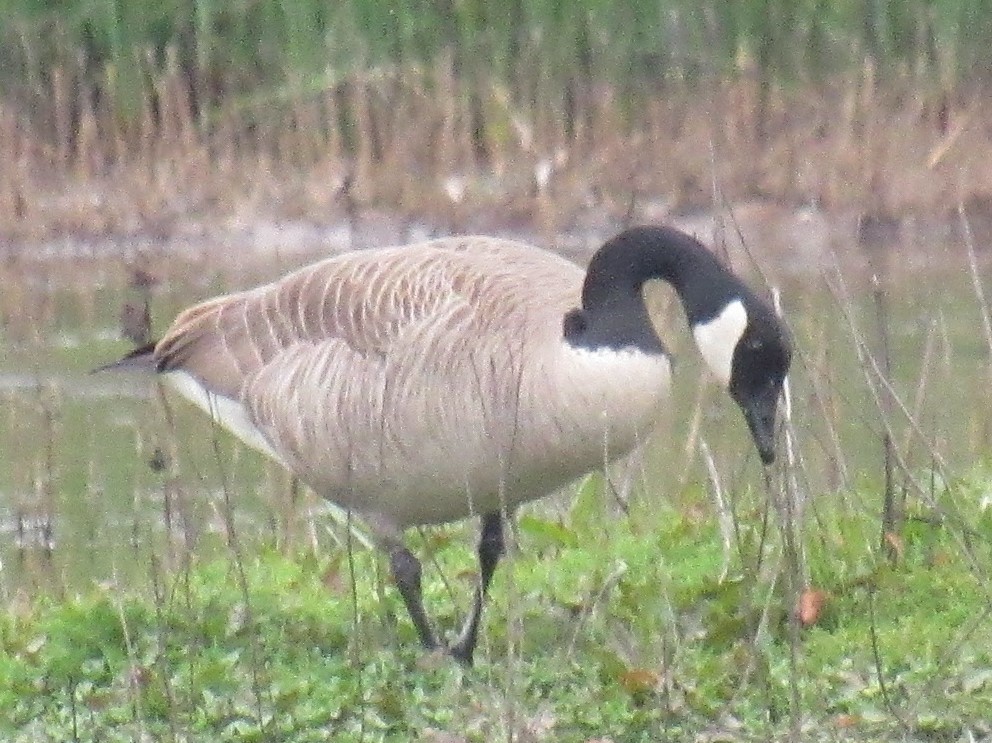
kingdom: Animalia
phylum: Chordata
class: Aves
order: Anseriformes
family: Anatidae
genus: Branta
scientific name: Branta canadensis
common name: Canada goose
